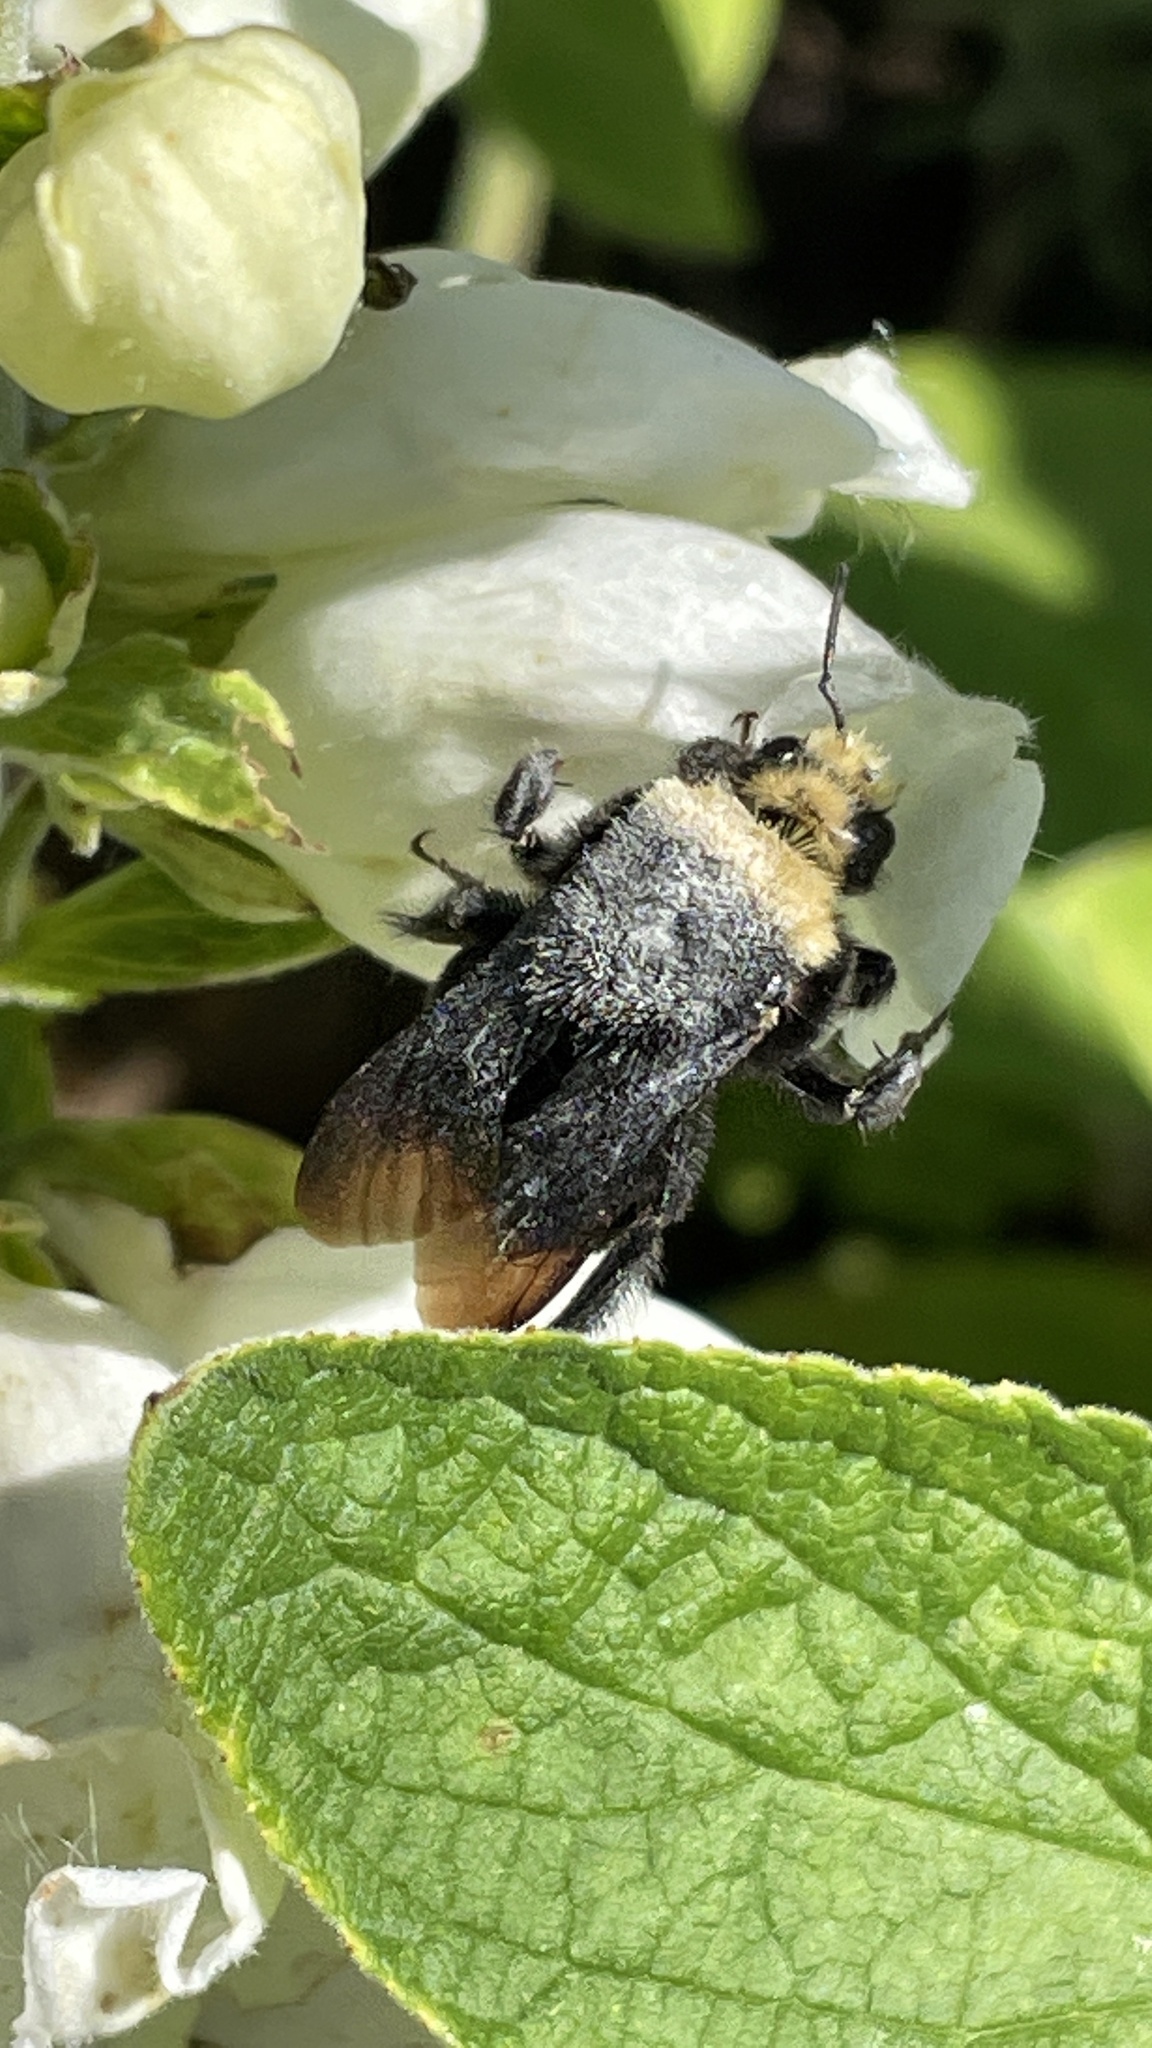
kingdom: Animalia
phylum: Arthropoda
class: Insecta
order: Hymenoptera
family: Apidae
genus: Bombus
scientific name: Bombus vosnesenskii
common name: Vosnesensky bumble bee
